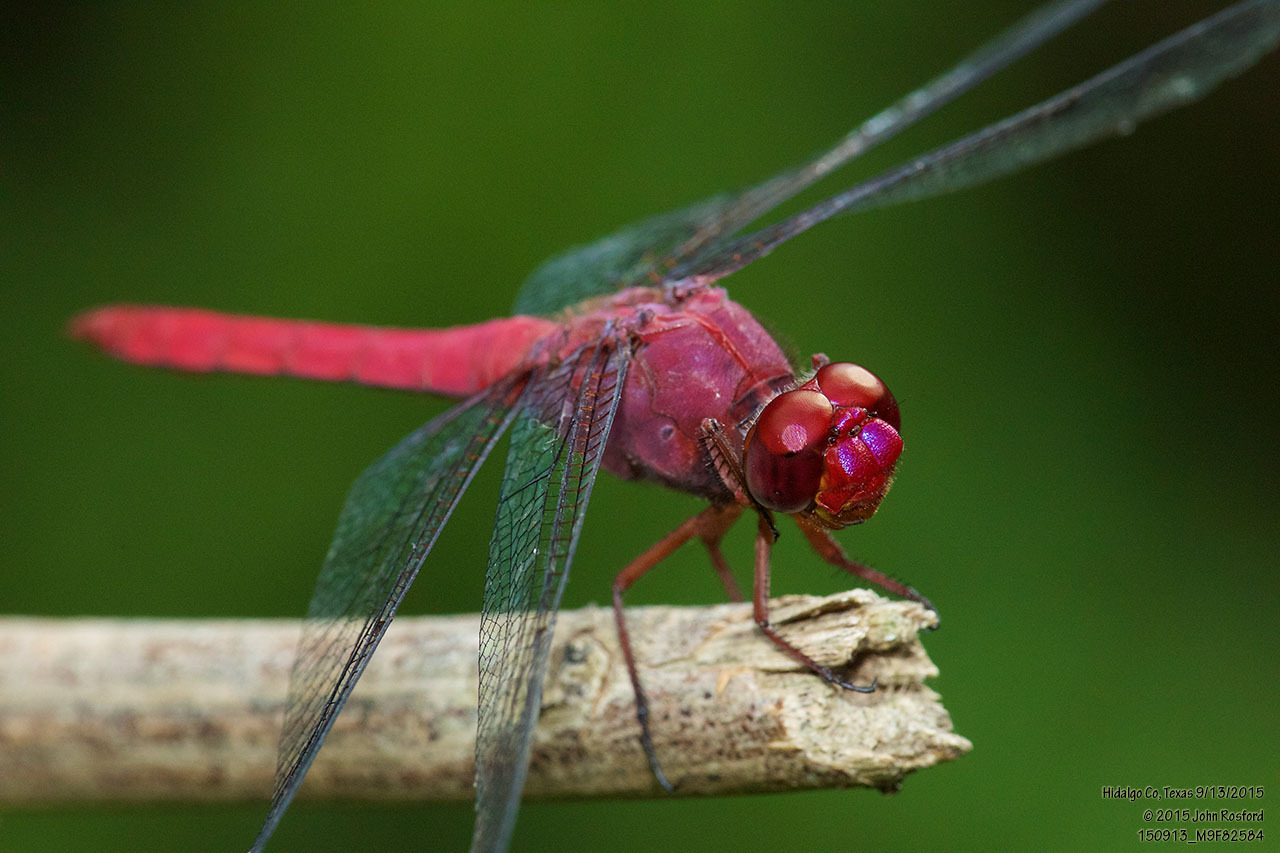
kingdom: Animalia
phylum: Arthropoda
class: Insecta
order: Odonata
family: Libellulidae
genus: Orthemis
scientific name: Orthemis discolor
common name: Carmine skimmer
